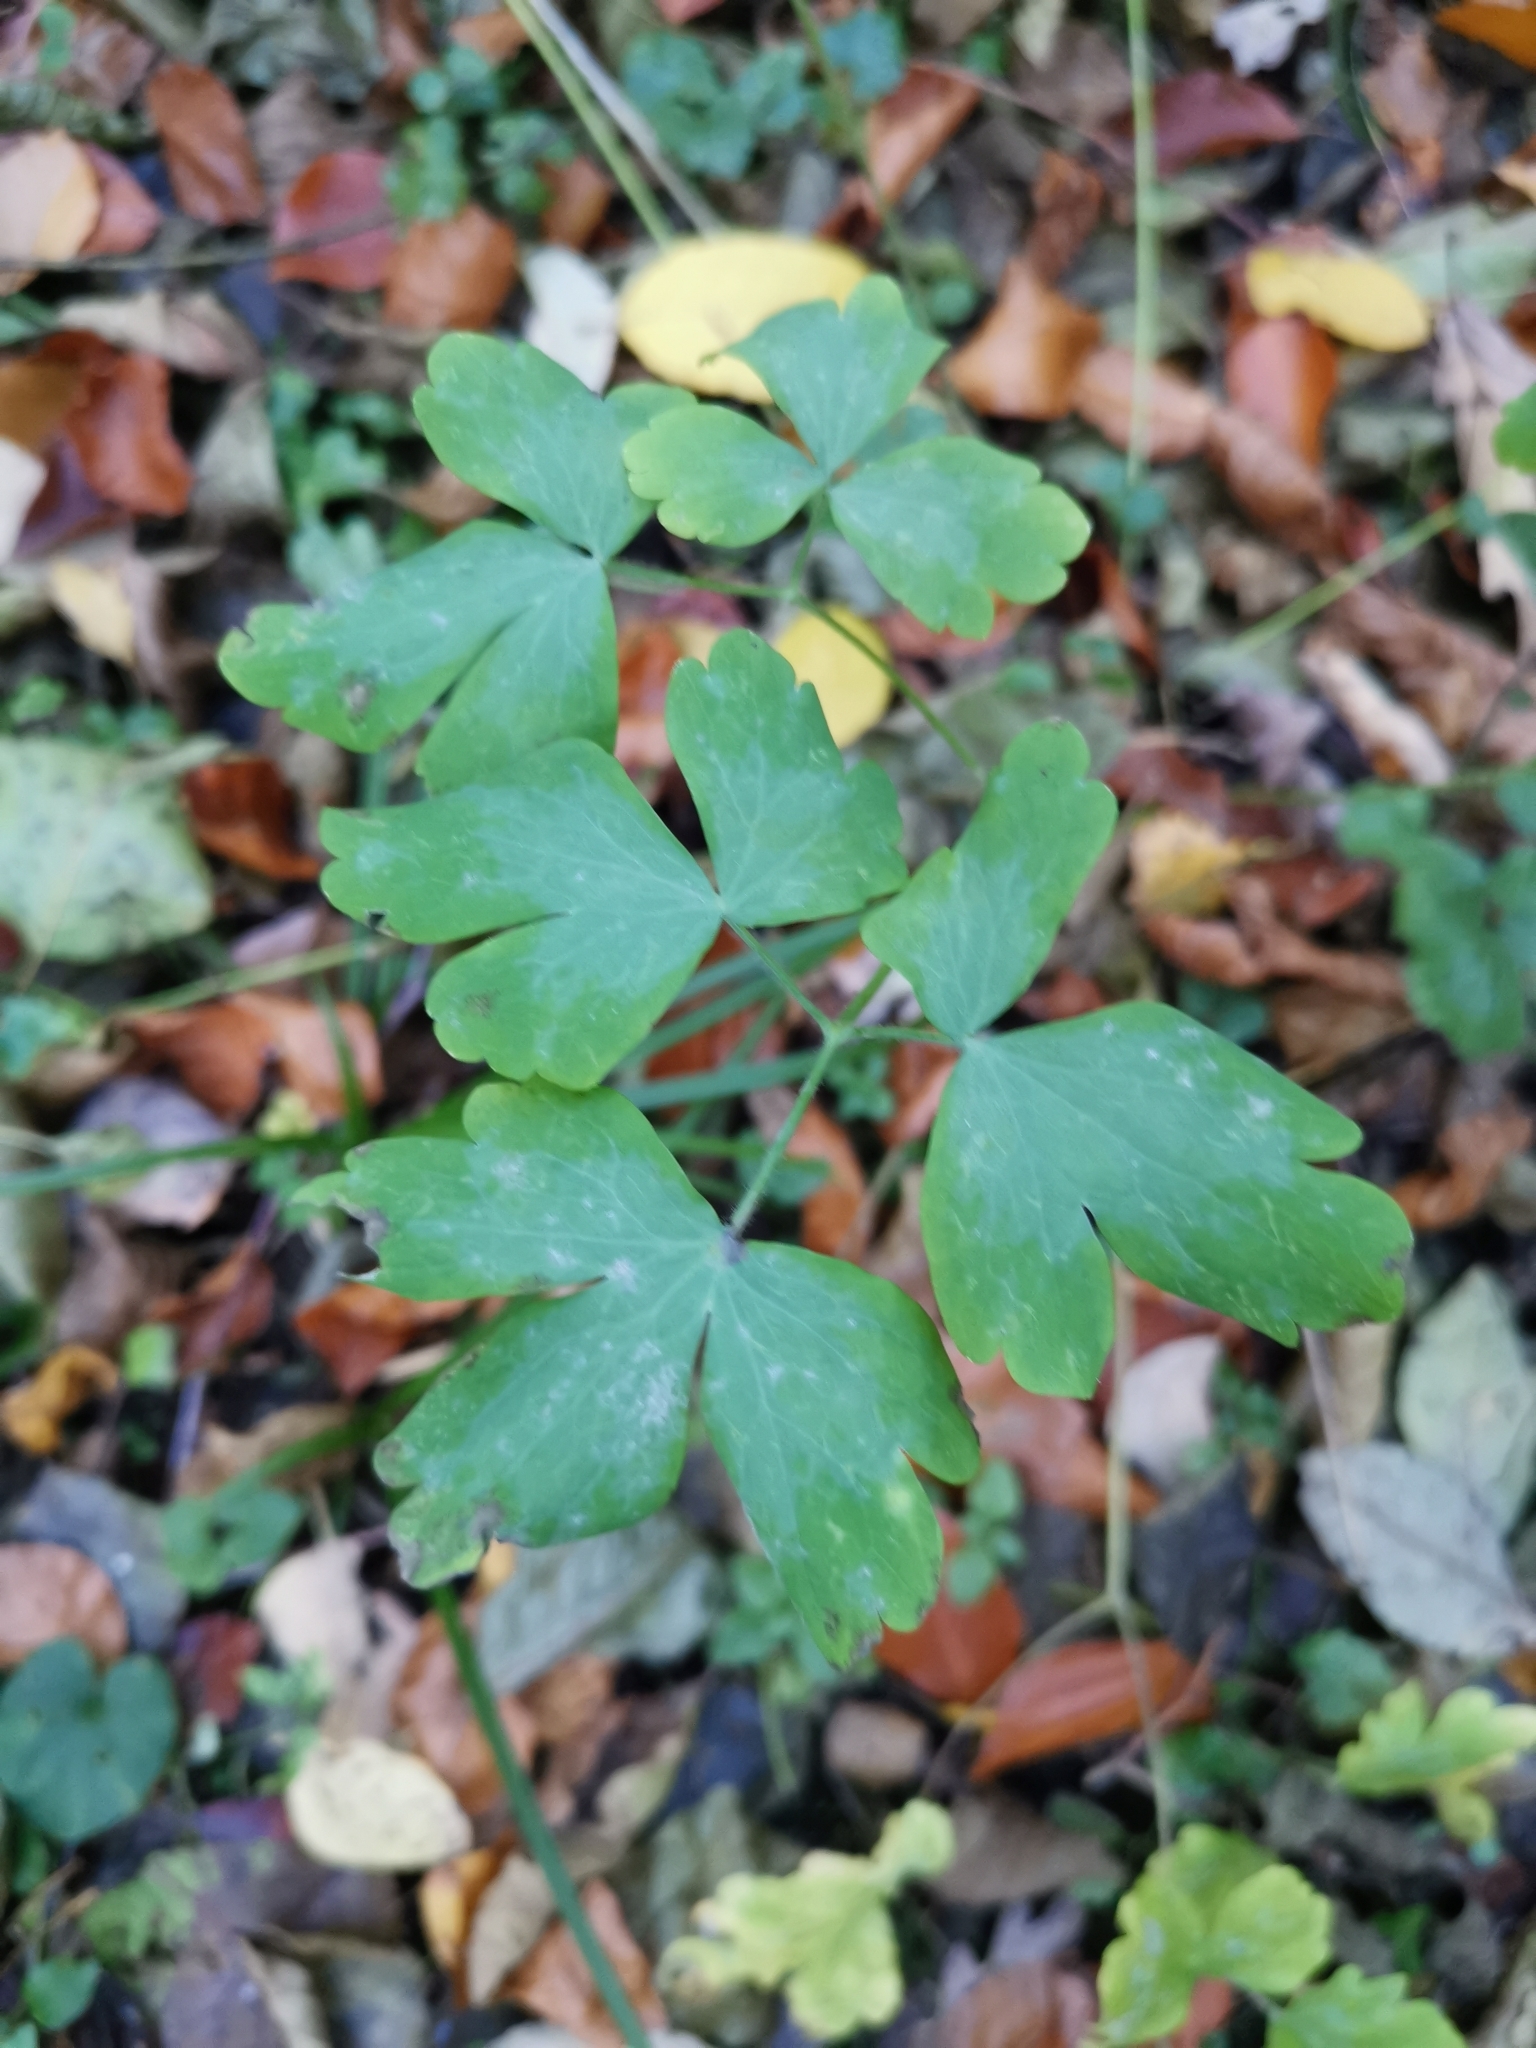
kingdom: Plantae
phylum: Tracheophyta
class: Magnoliopsida
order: Ranunculales
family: Ranunculaceae
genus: Aquilegia
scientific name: Aquilegia vulgaris
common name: Columbine
